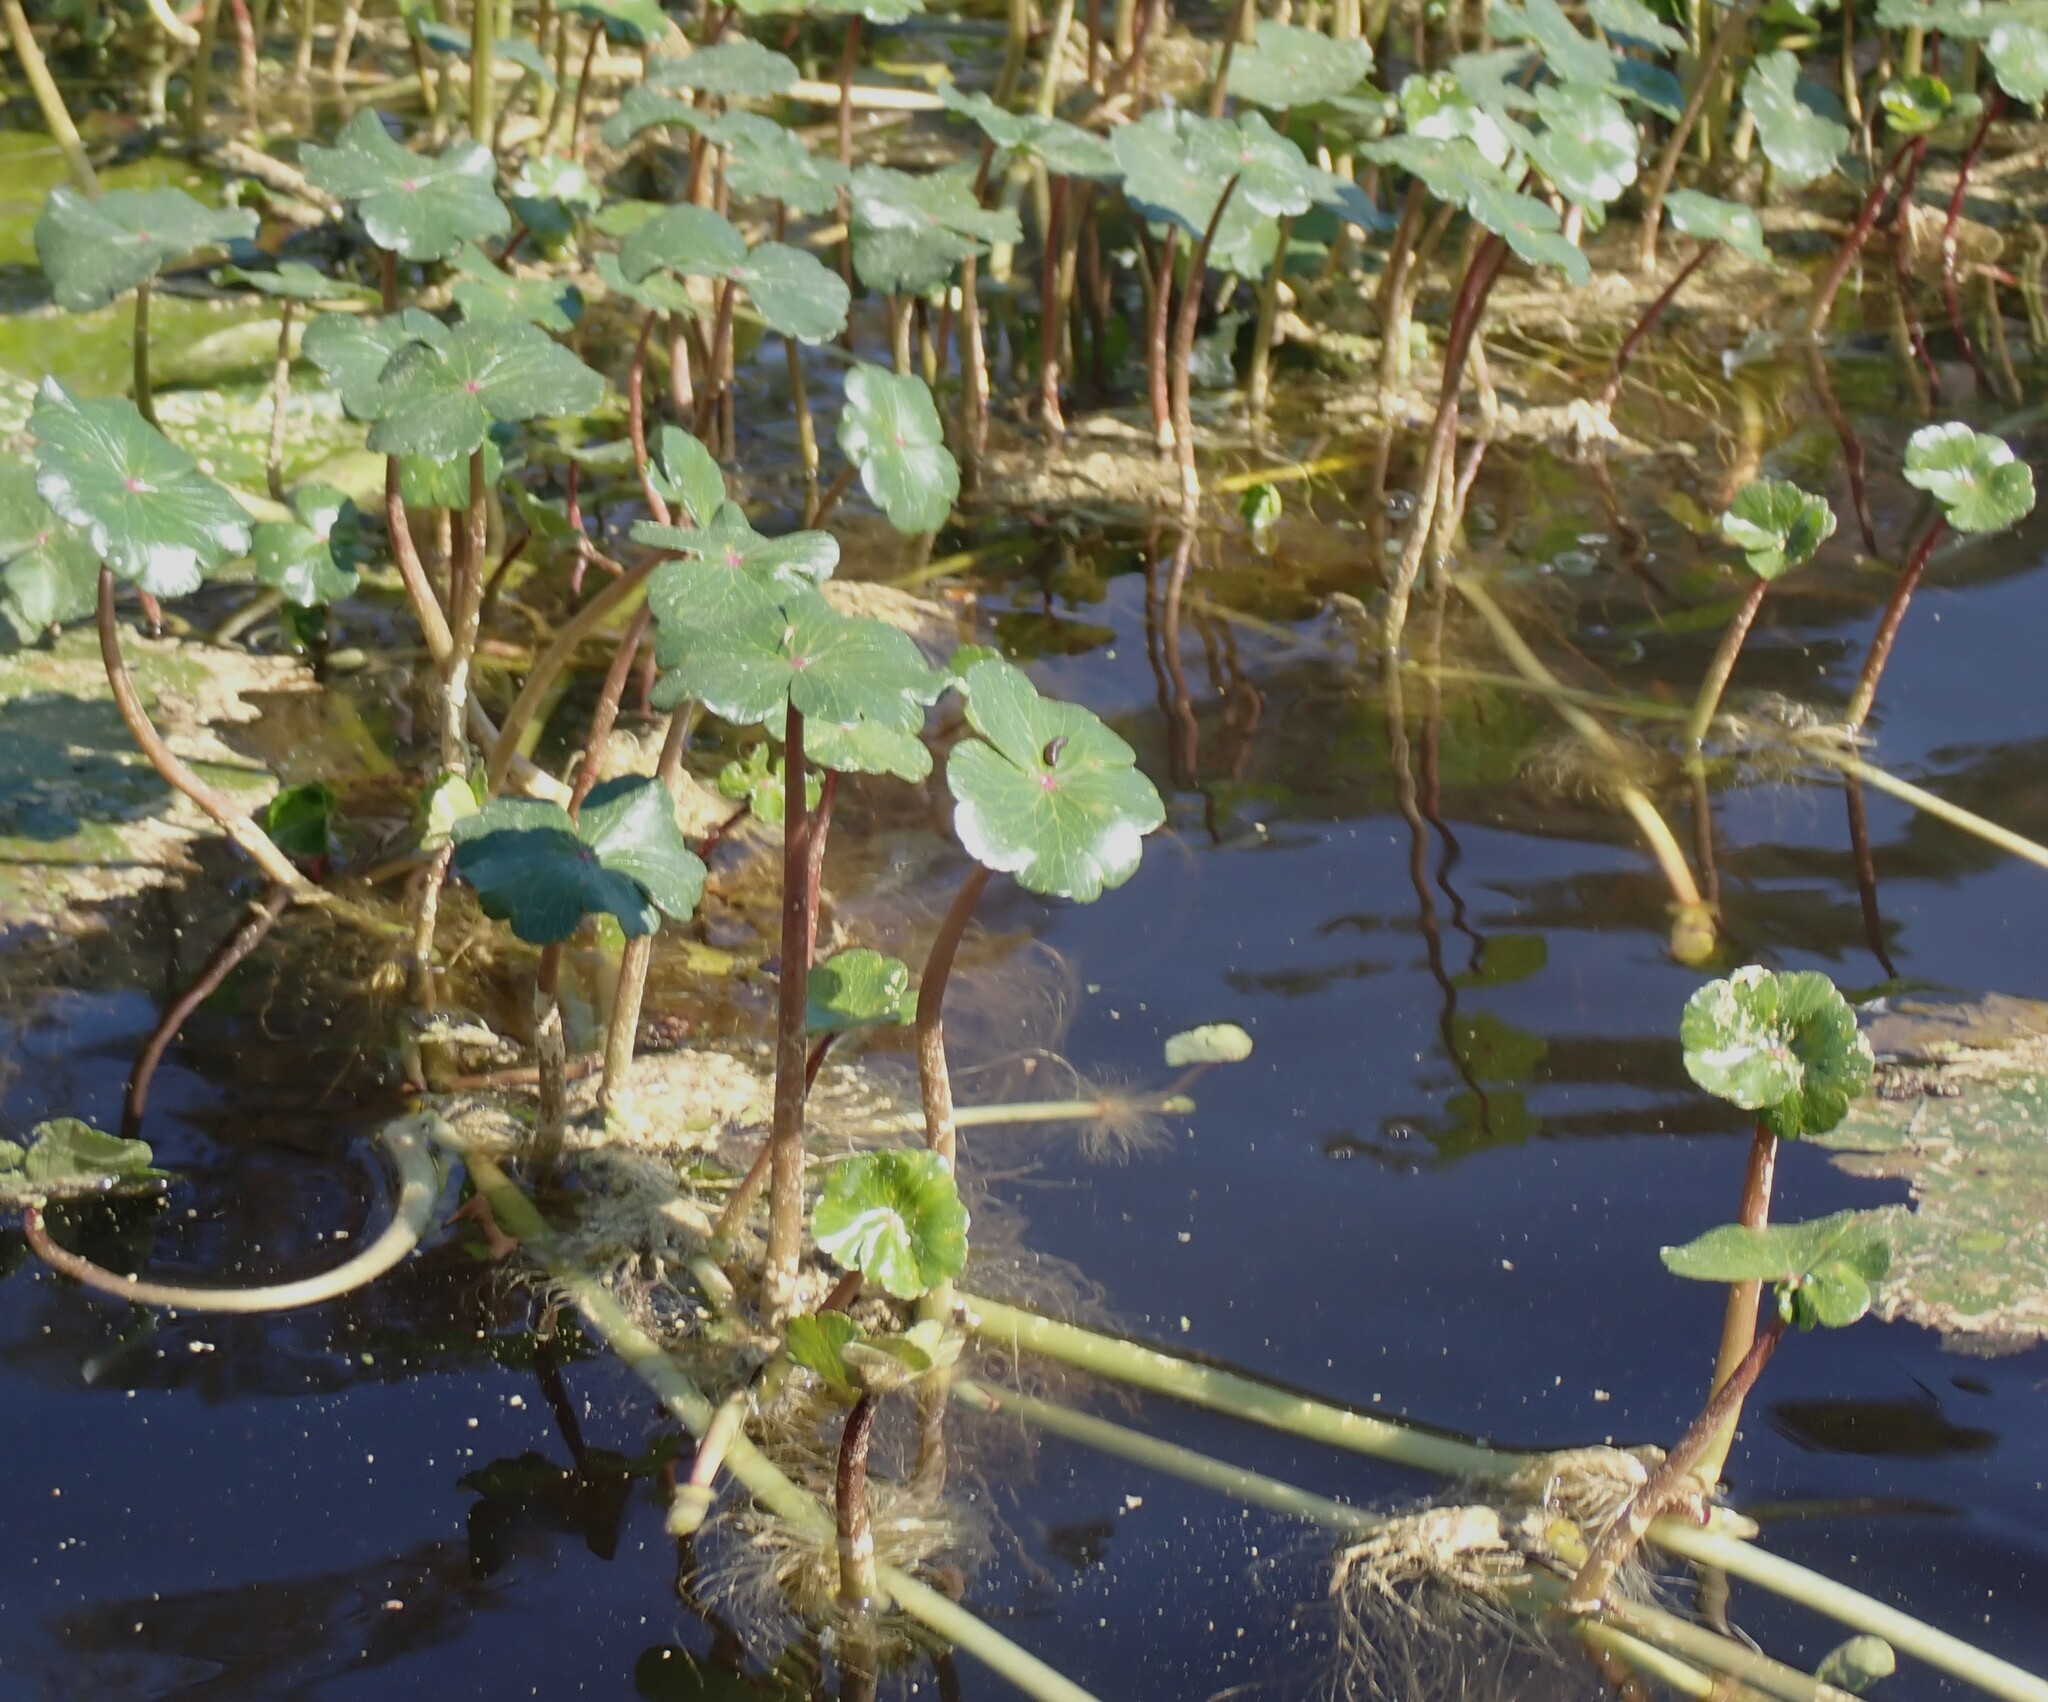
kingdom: Plantae
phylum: Tracheophyta
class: Magnoliopsida
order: Apiales
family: Araliaceae
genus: Hydrocotyle
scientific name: Hydrocotyle ranunculoides
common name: Floating pennywort
